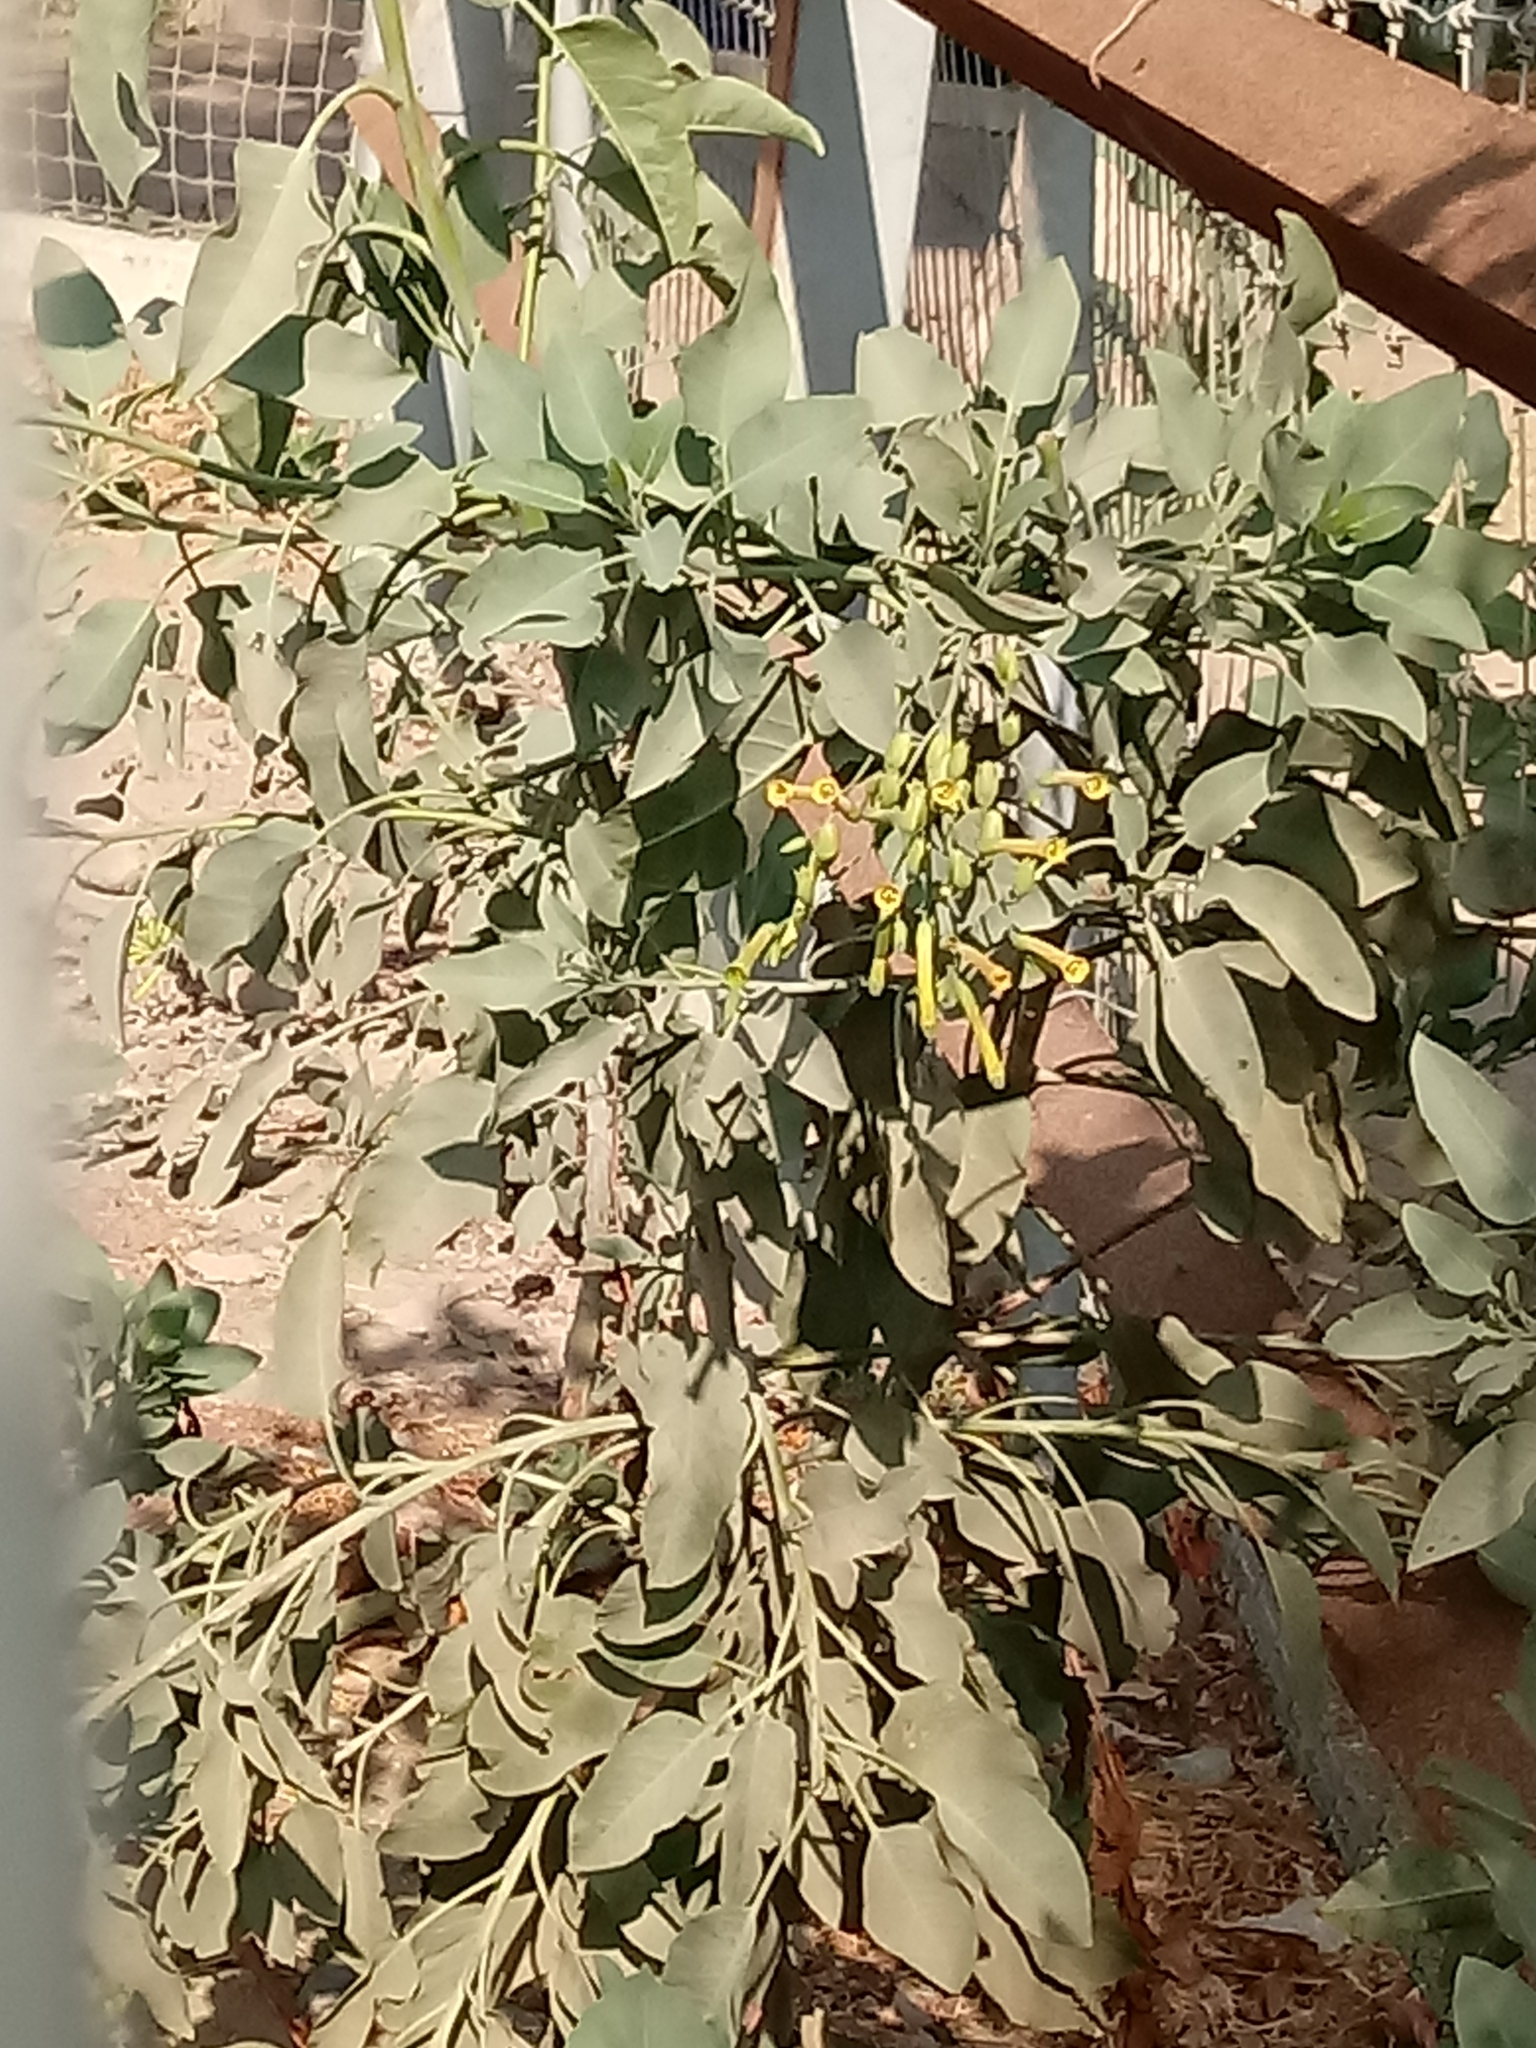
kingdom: Plantae
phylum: Tracheophyta
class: Magnoliopsida
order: Solanales
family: Solanaceae
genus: Nicotiana
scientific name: Nicotiana glauca
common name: Tree tobacco
